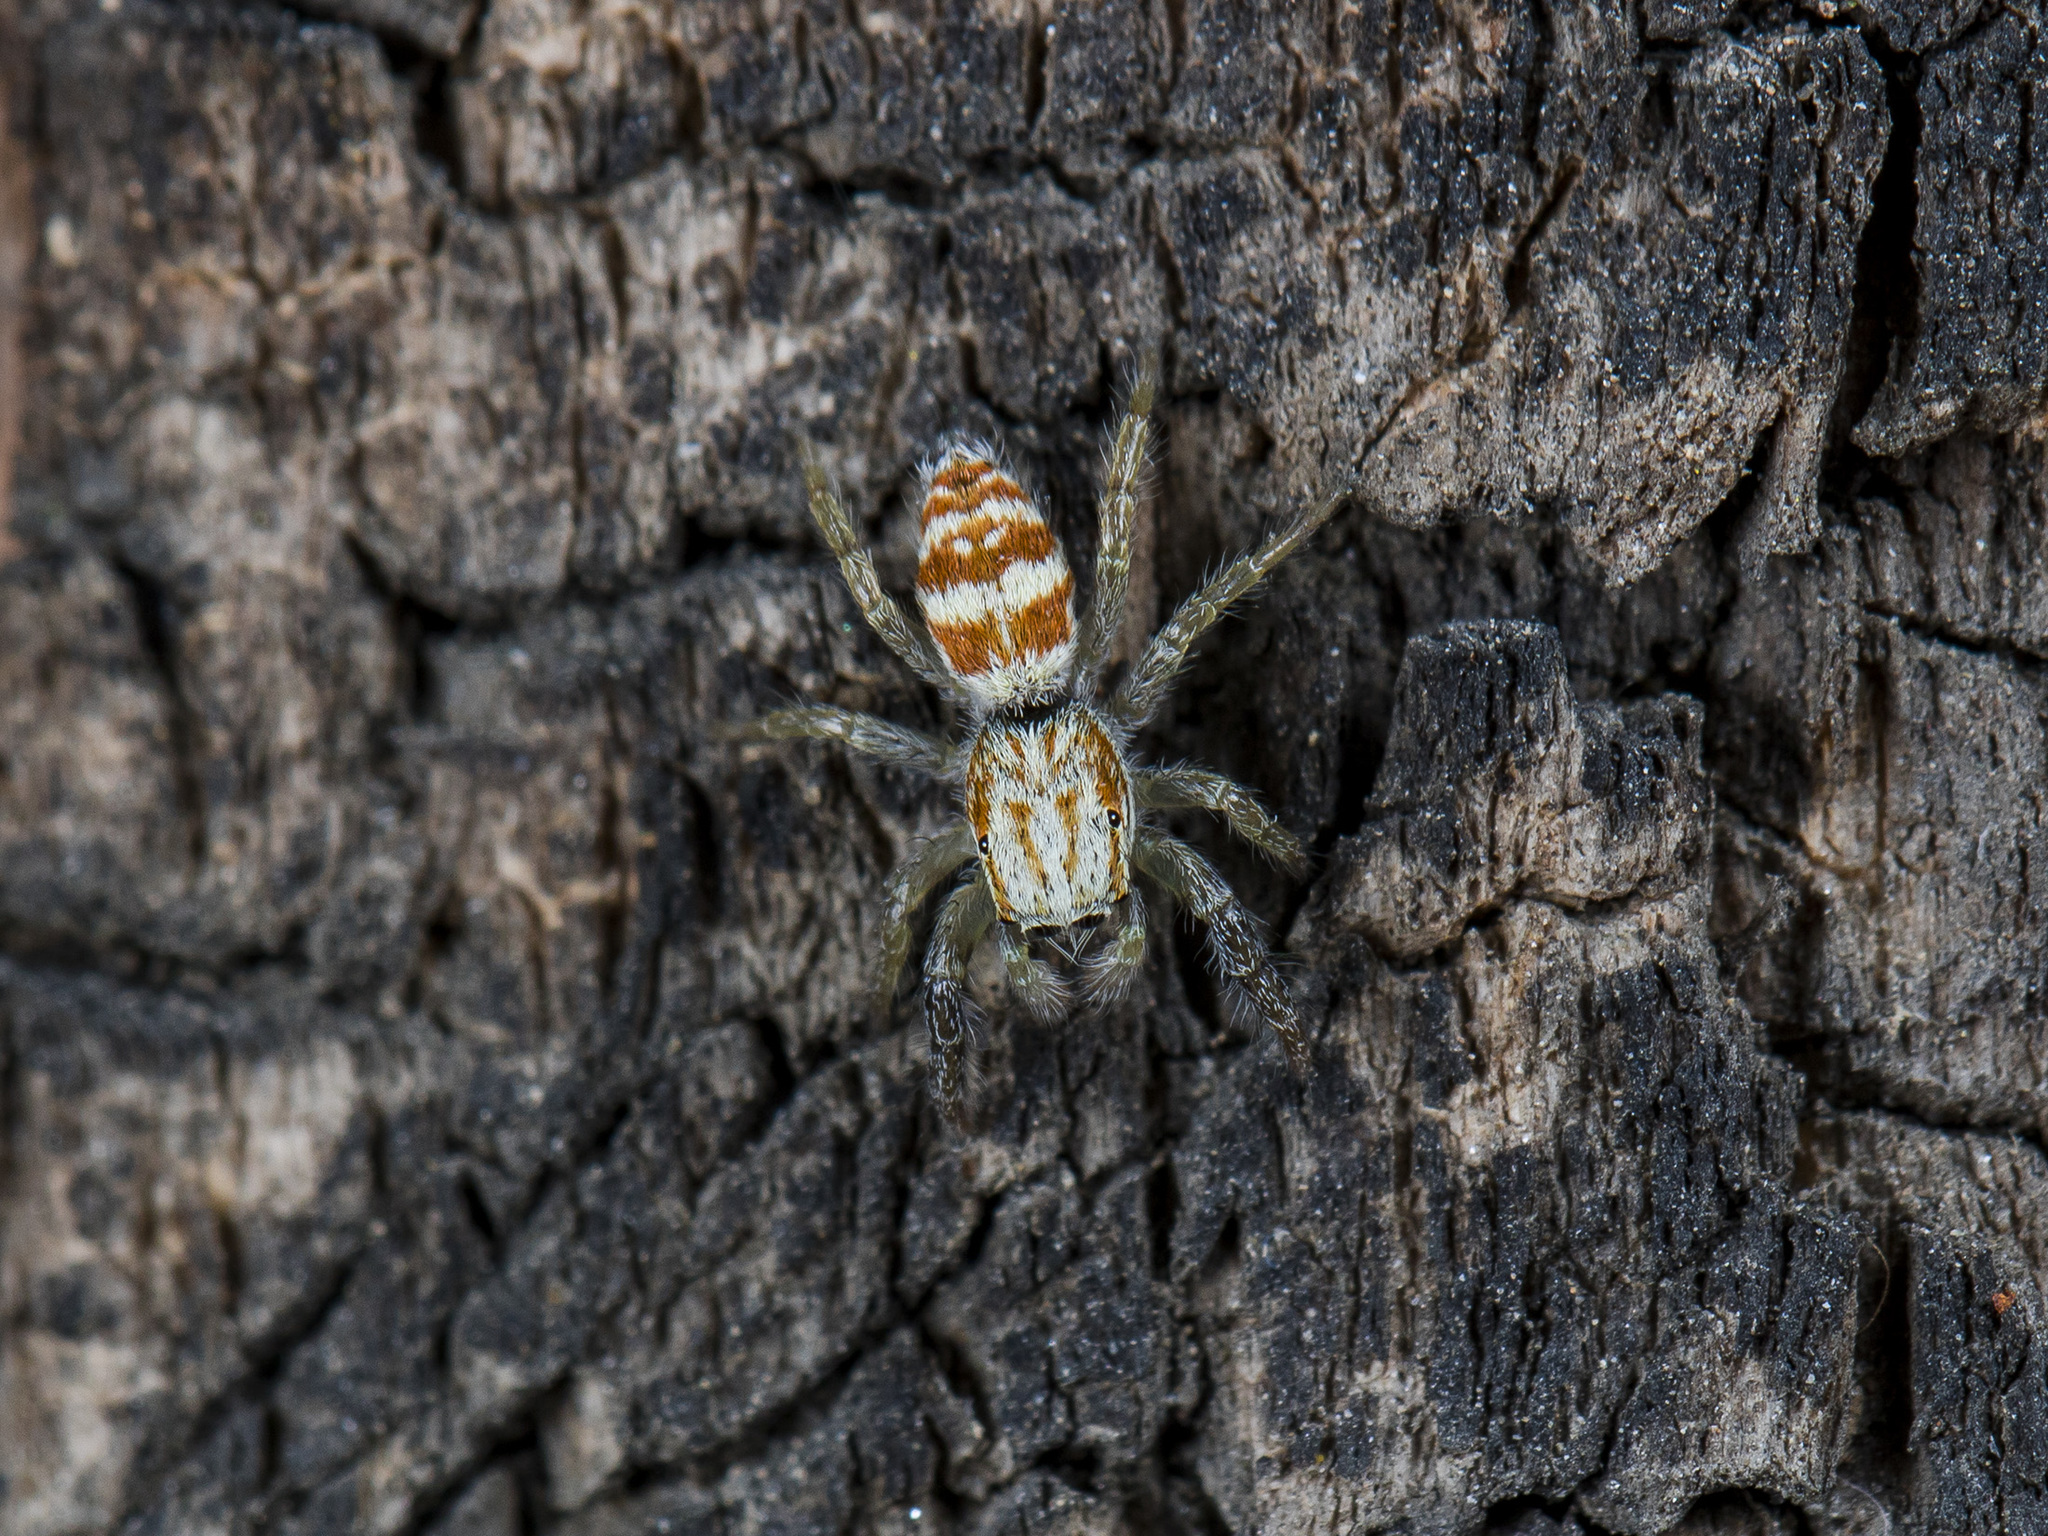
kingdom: Animalia
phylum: Arthropoda
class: Arachnida
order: Araneae
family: Salticidae
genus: Rudakius
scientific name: Rudakius cinctus
